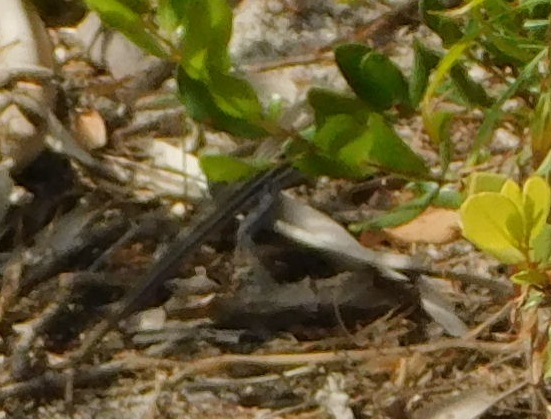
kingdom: Animalia
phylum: Chordata
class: Squamata
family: Teiidae
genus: Aspidoscelis
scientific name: Aspidoscelis sexlineatus
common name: Six-lined racerunner
